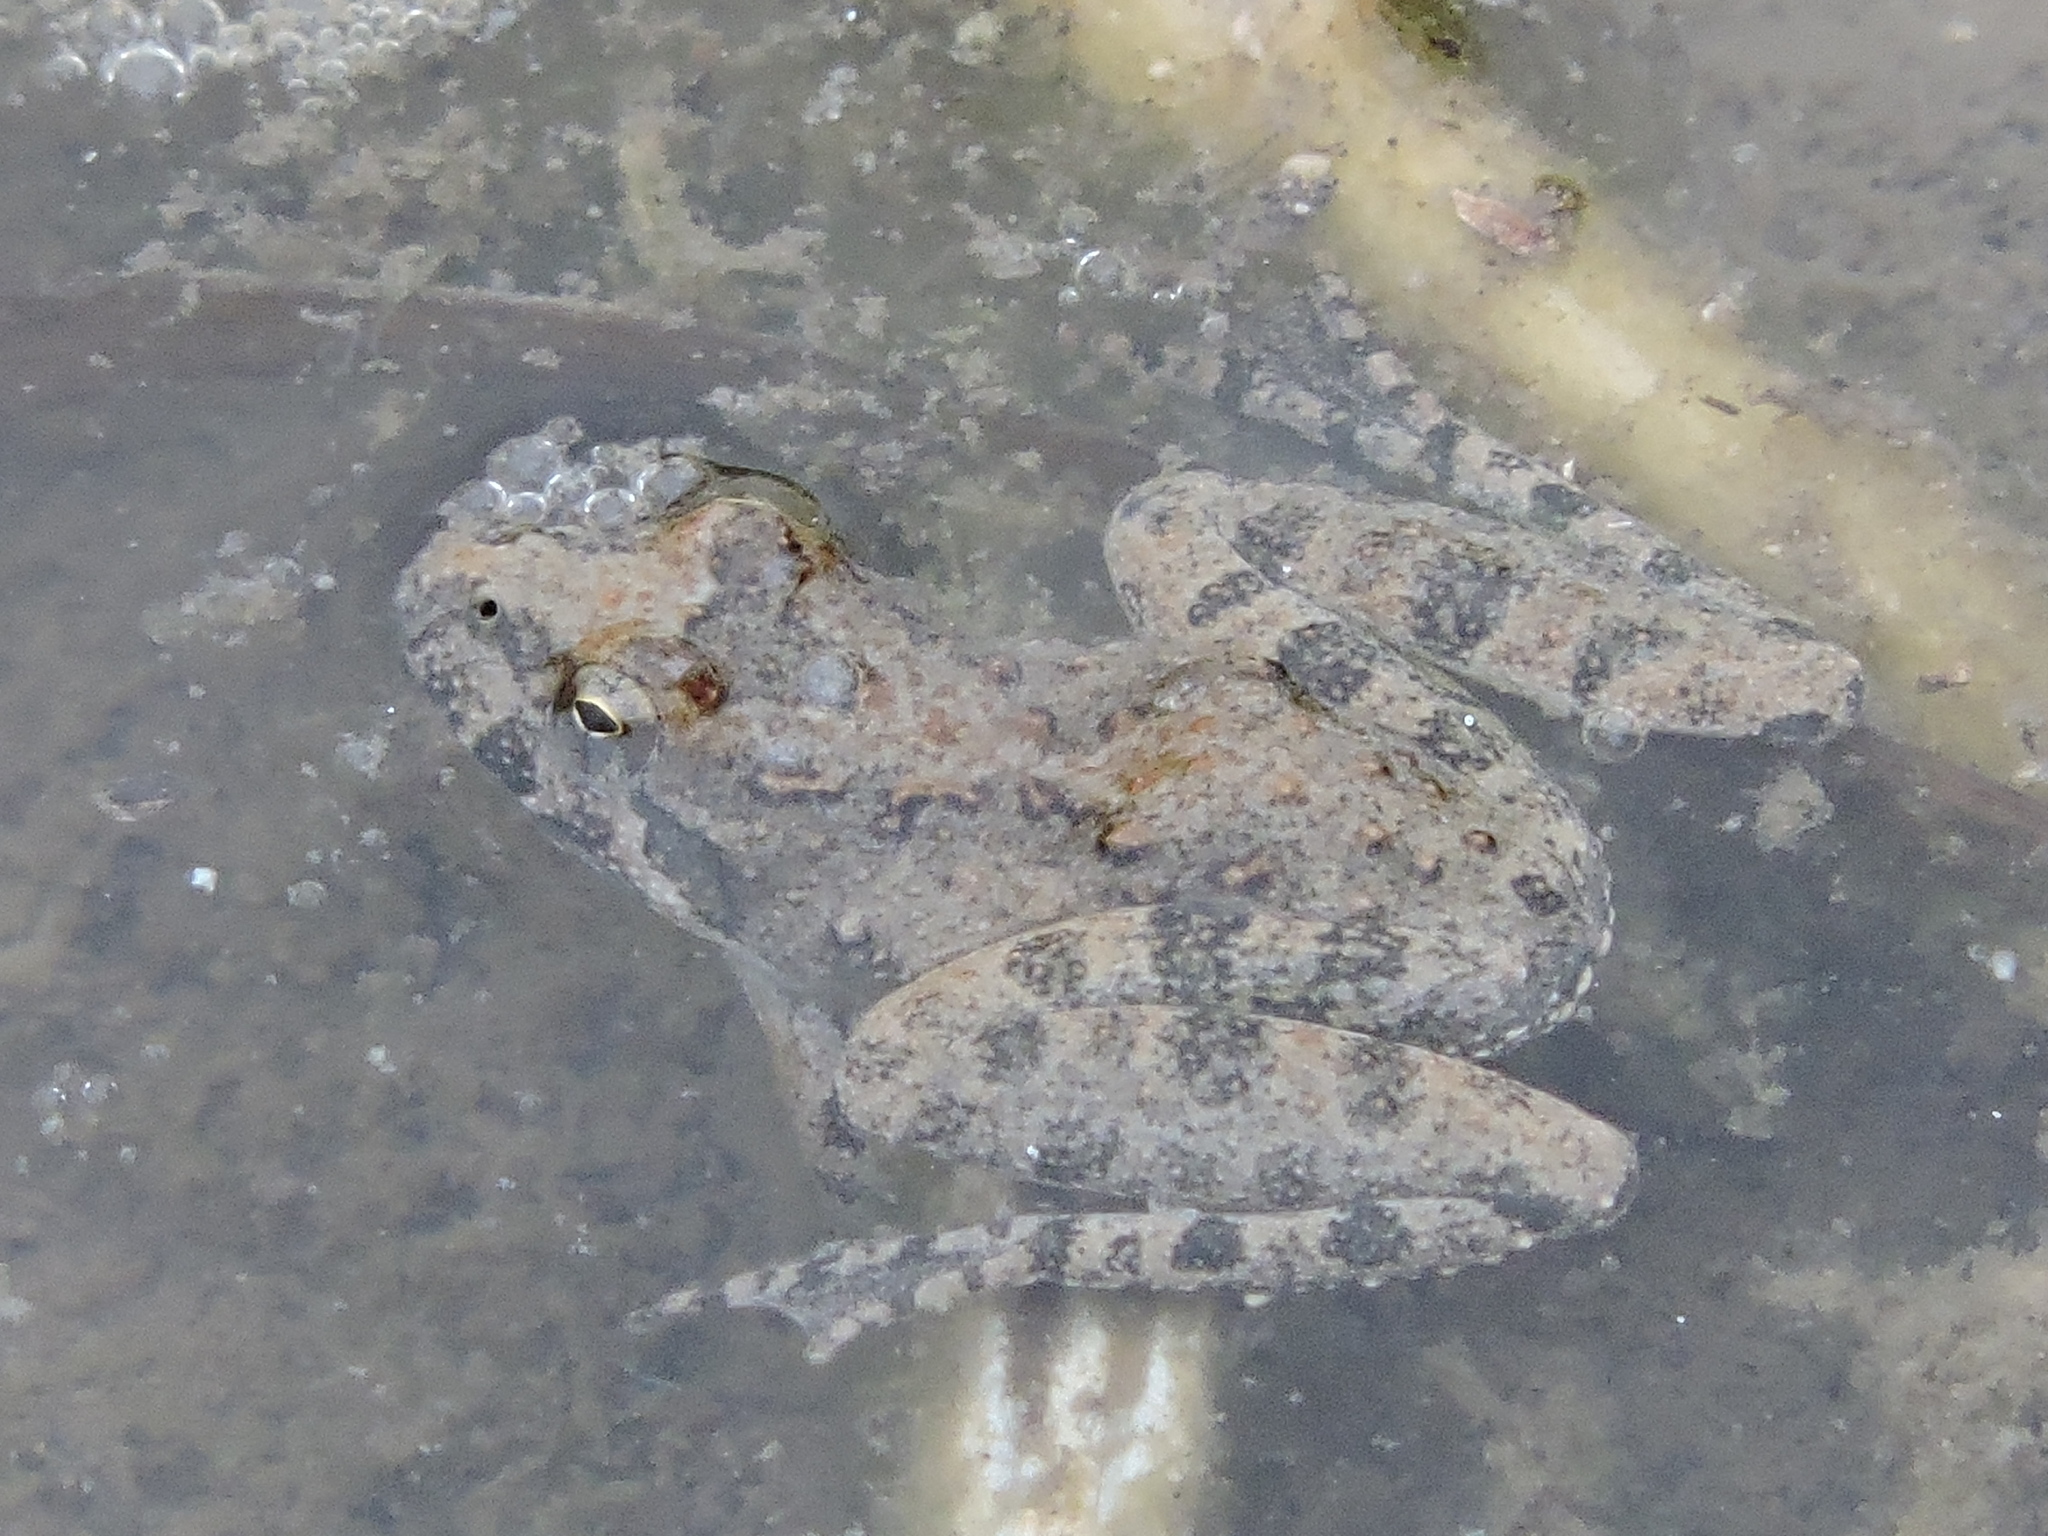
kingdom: Animalia
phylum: Chordata
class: Amphibia
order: Anura
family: Hylidae
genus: Acris
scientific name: Acris blanchardi
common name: Blanchard's cricket frog
